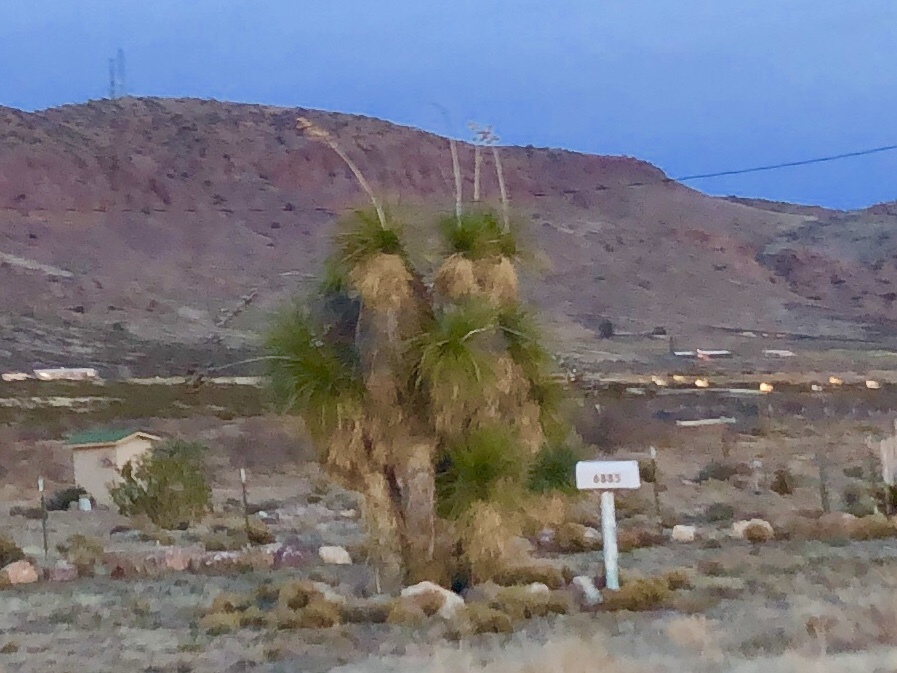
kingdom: Plantae
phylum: Tracheophyta
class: Liliopsida
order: Asparagales
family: Asparagaceae
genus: Yucca
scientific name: Yucca elata
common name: Palmella
